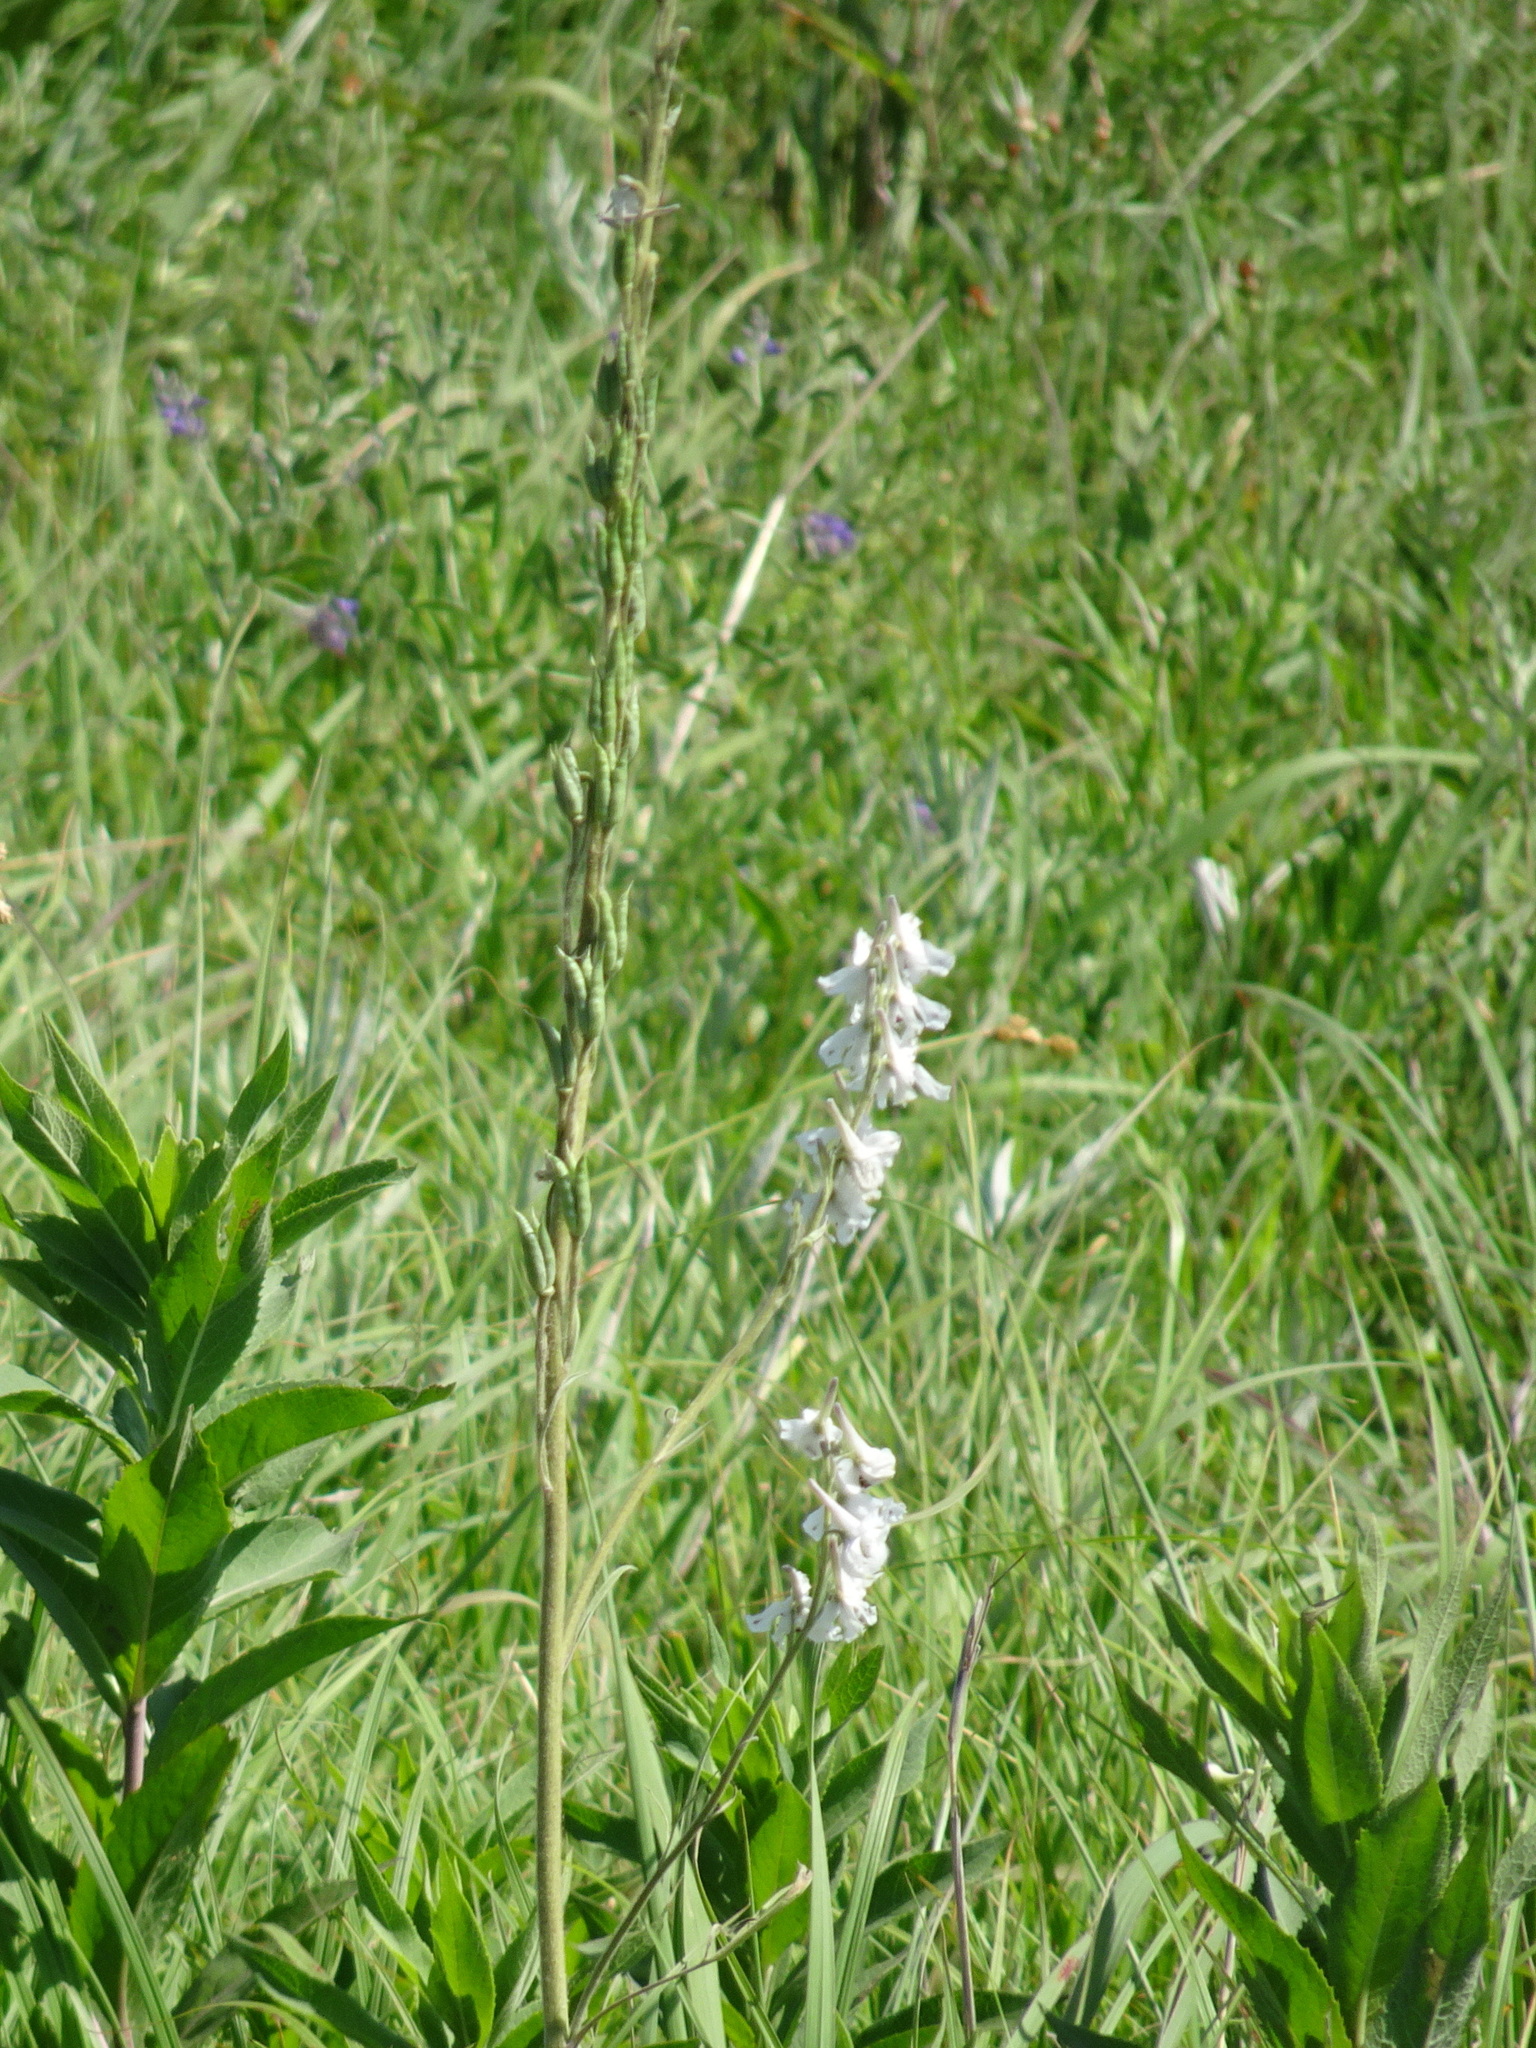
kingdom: Plantae
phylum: Tracheophyta
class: Magnoliopsida
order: Ranunculales
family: Ranunculaceae
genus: Delphinium
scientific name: Delphinium carolinianum
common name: Carolina larkspur
